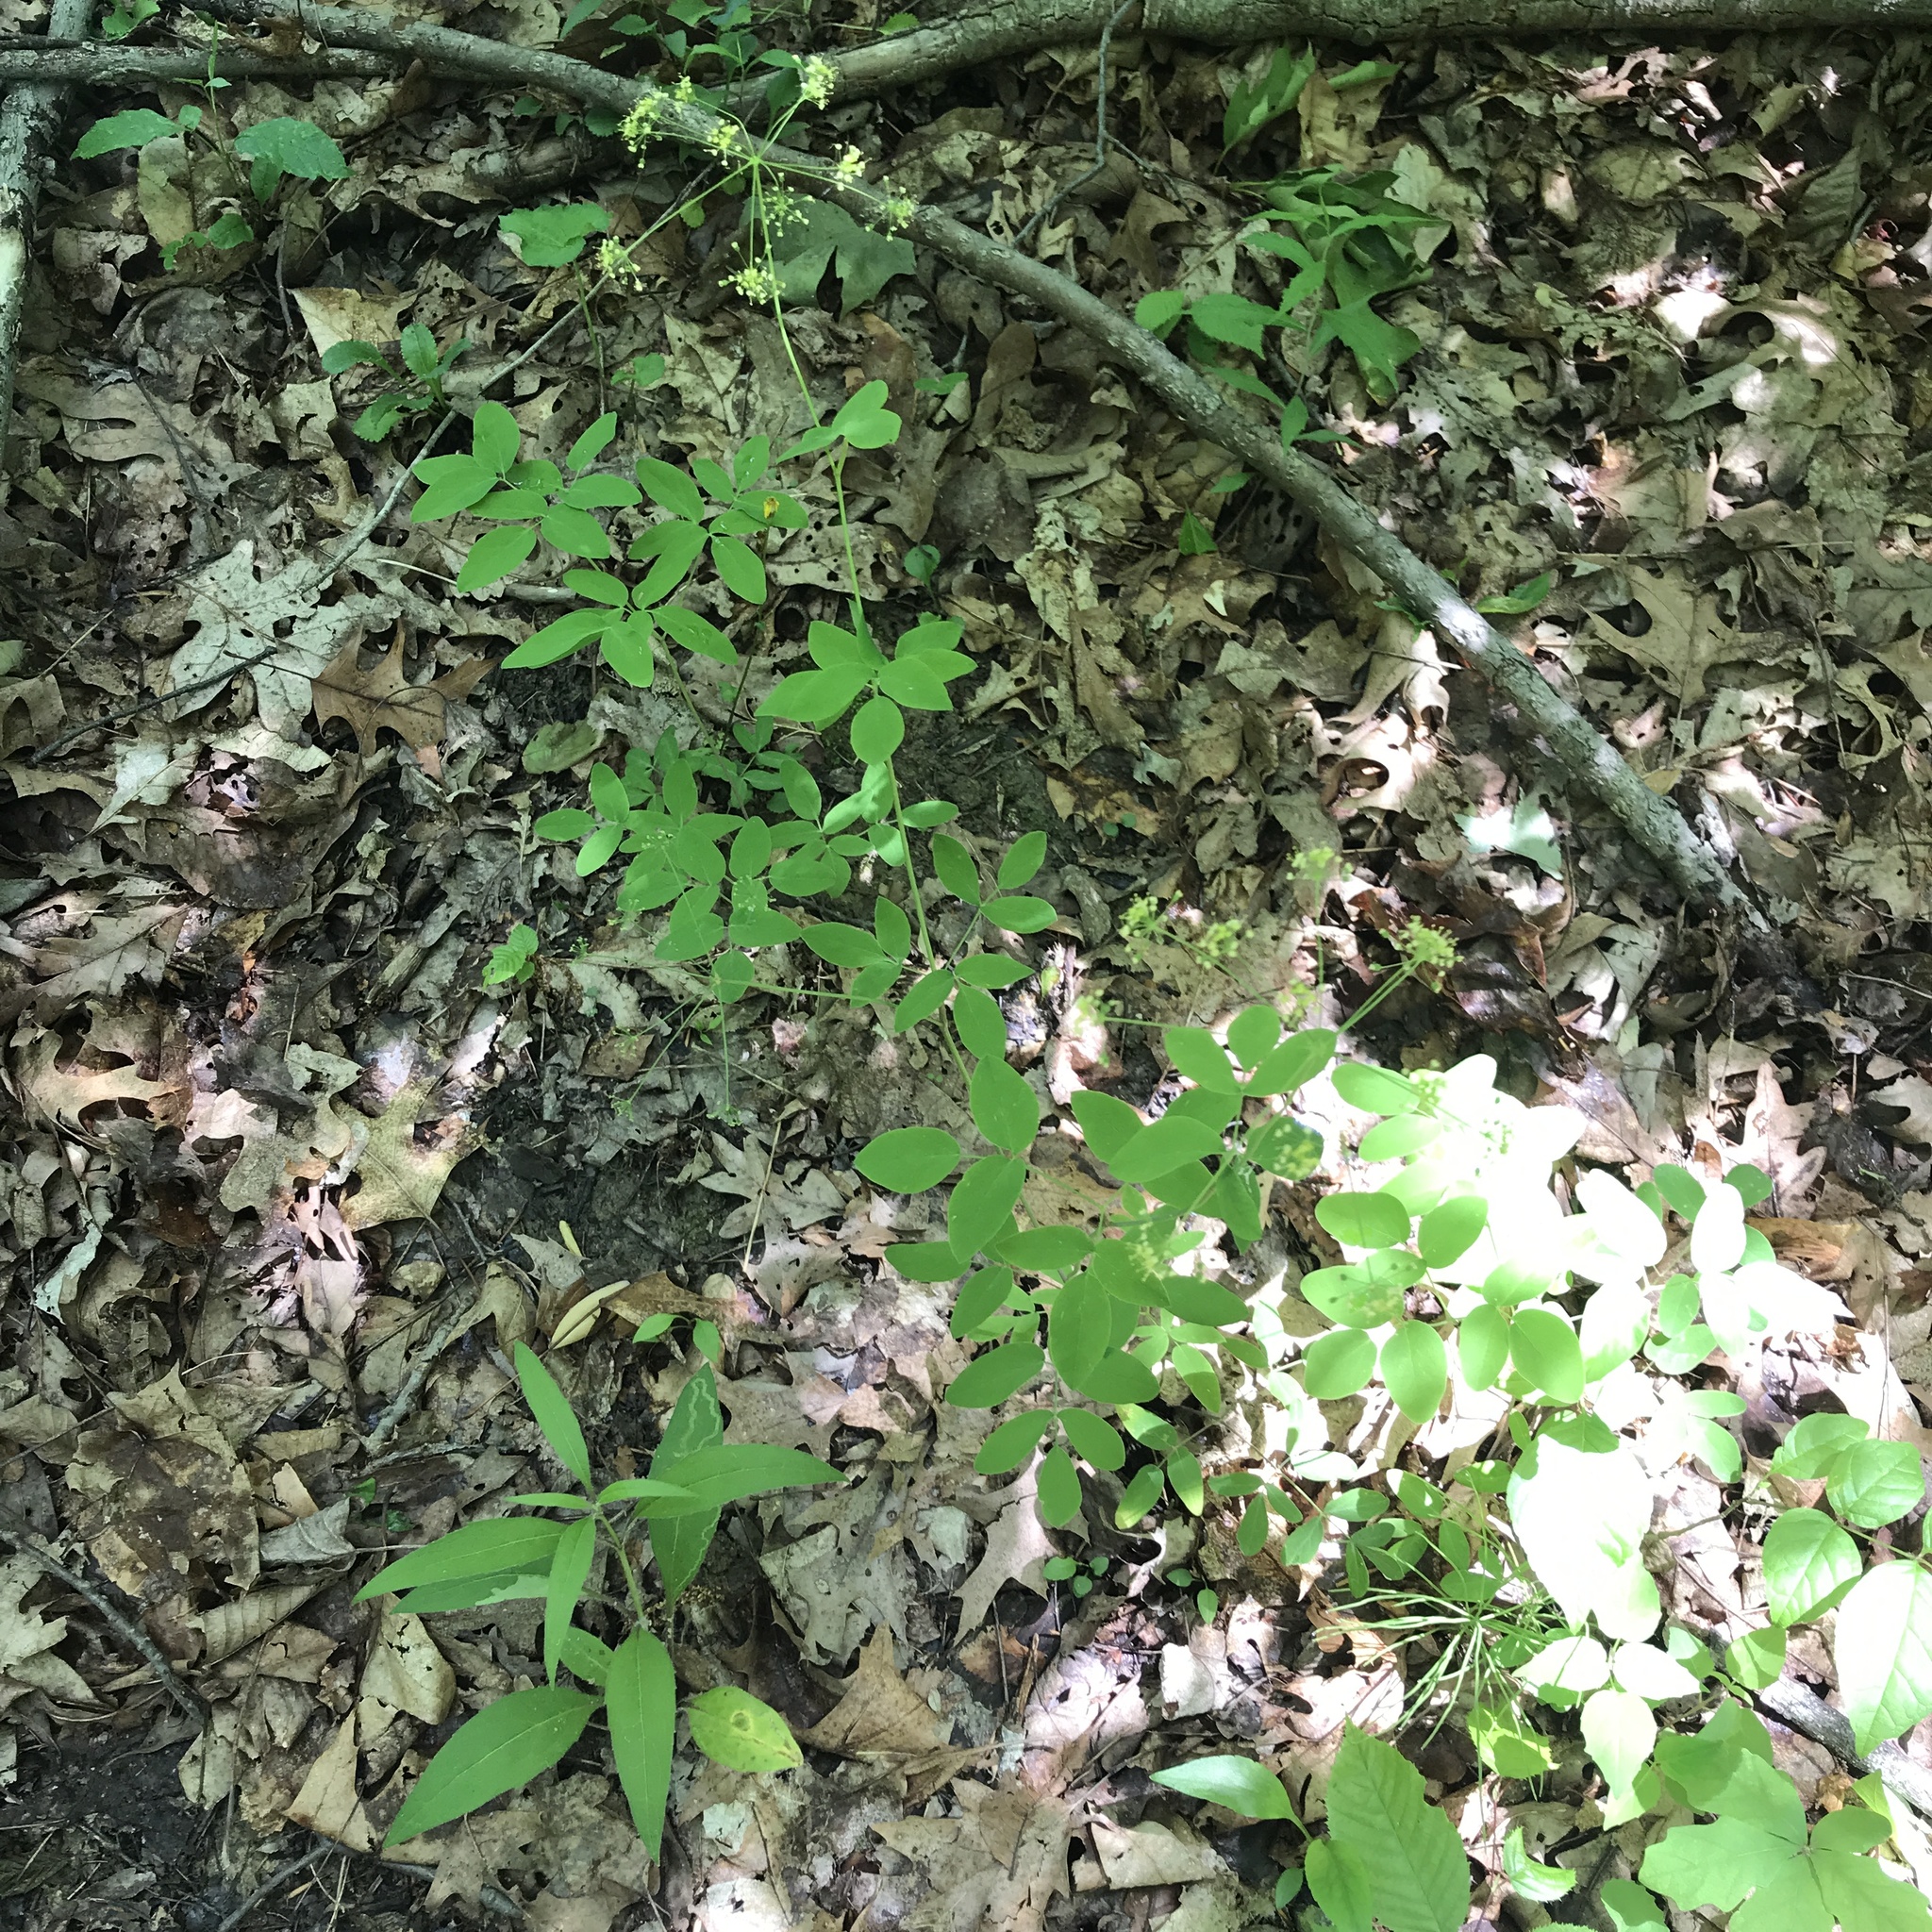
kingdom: Plantae
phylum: Tracheophyta
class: Magnoliopsida
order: Apiales
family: Apiaceae
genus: Taenidia
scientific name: Taenidia integerrima
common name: Golden alexander
